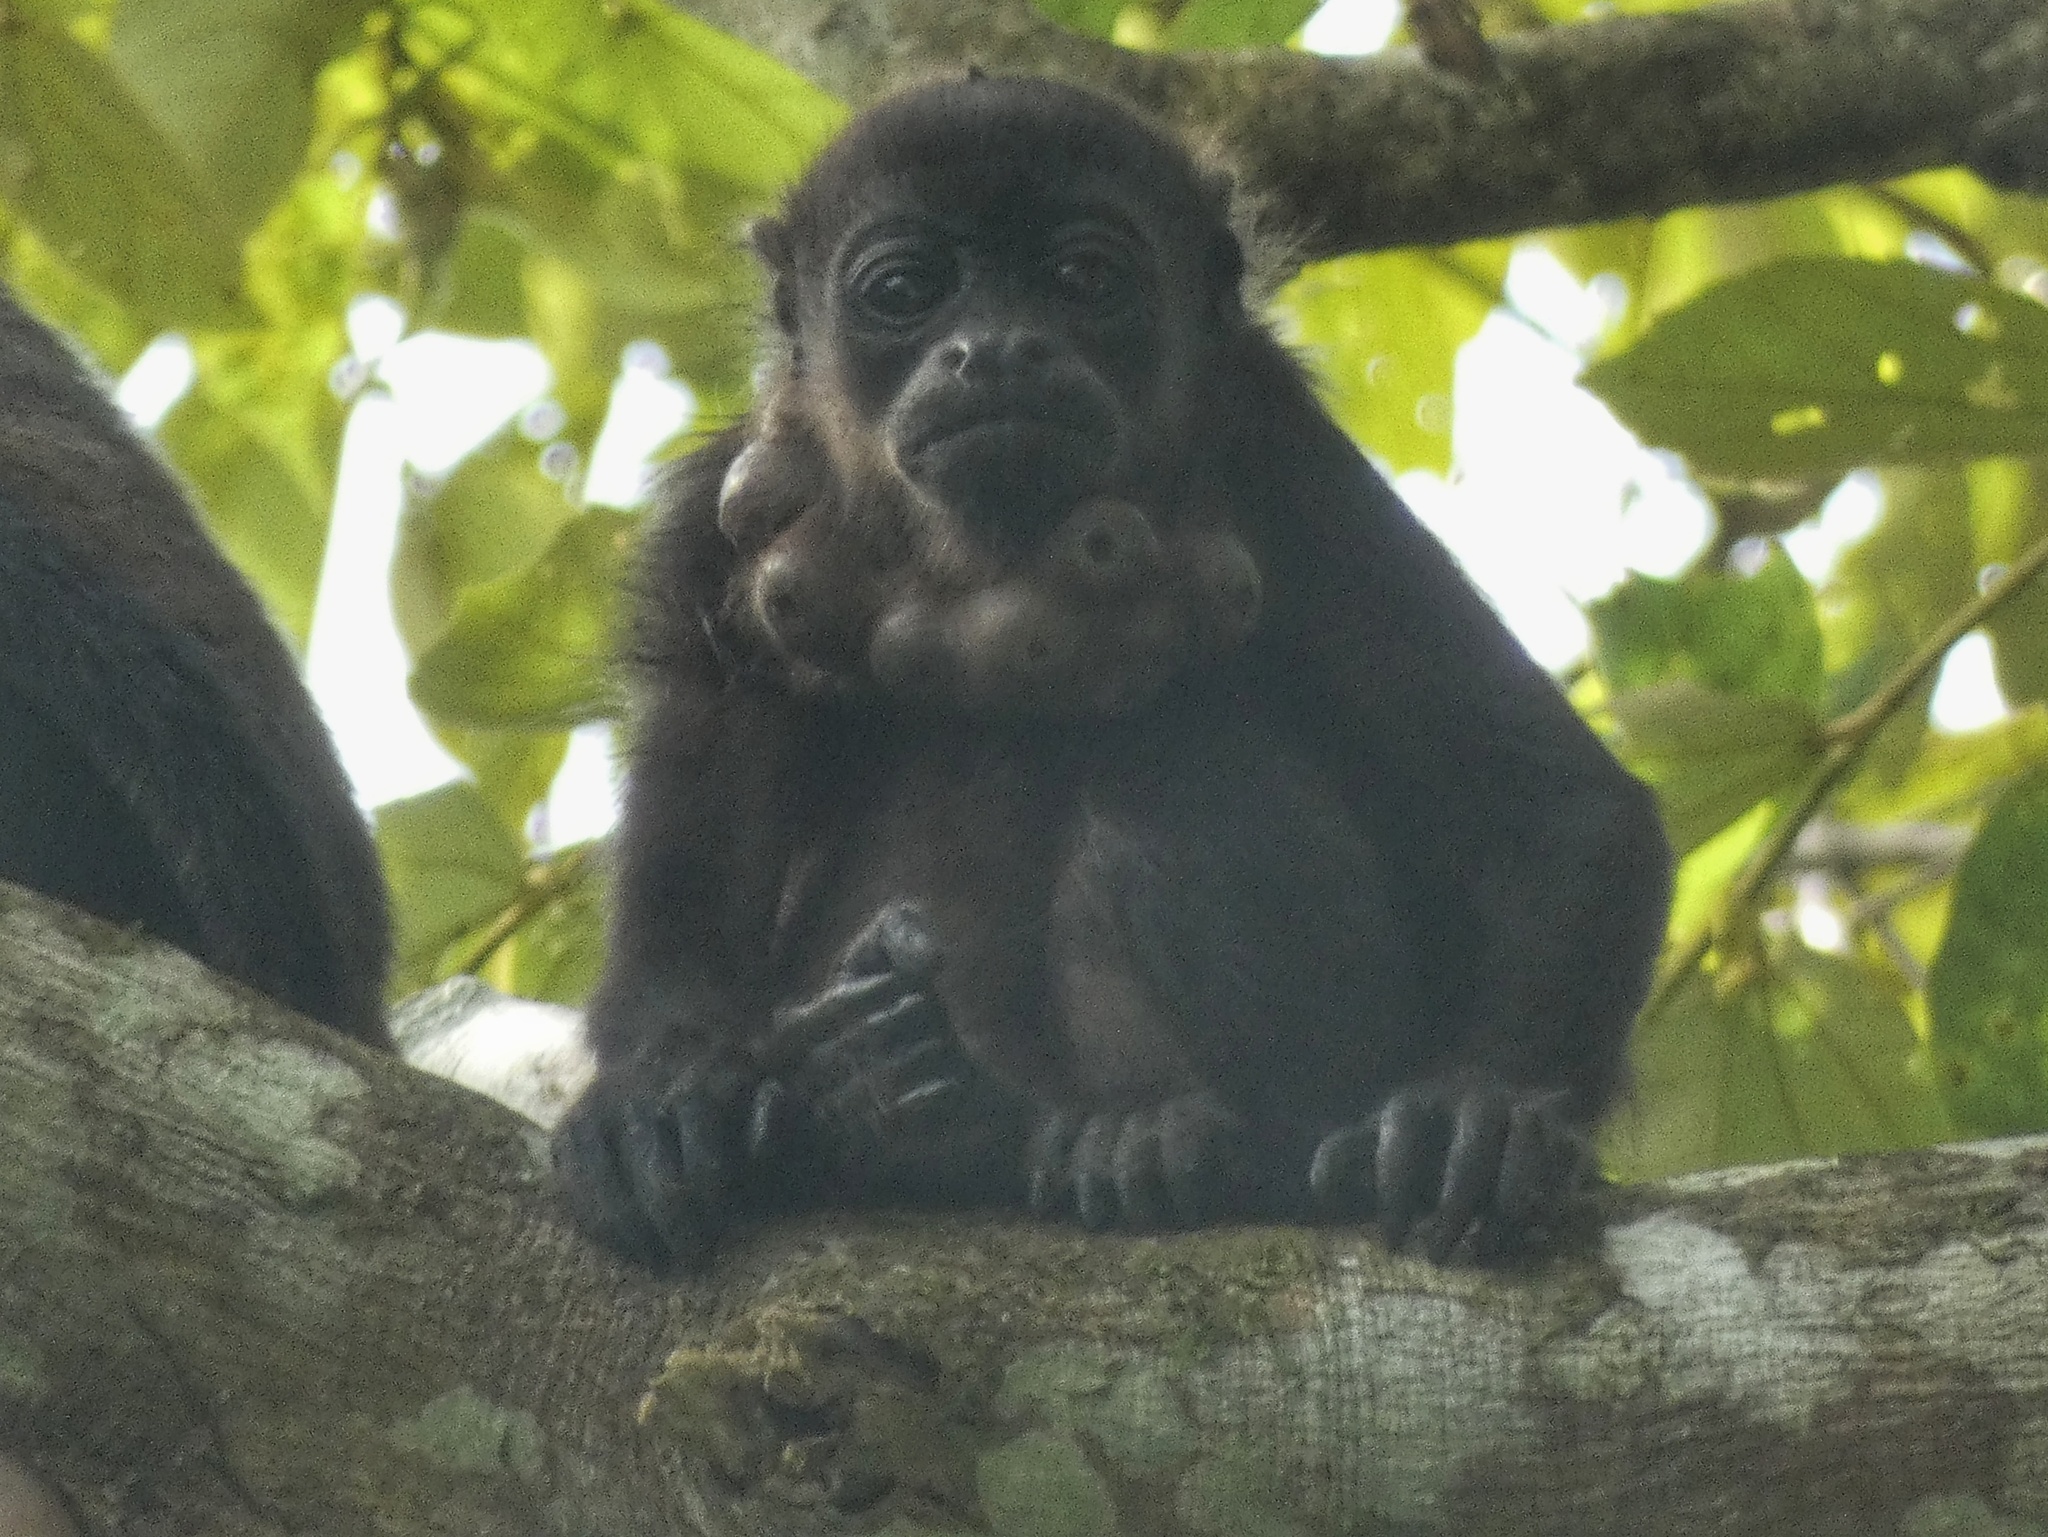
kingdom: Animalia
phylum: Chordata
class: Mammalia
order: Primates
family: Atelidae
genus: Alouatta
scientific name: Alouatta palliata
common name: Mantled howler
